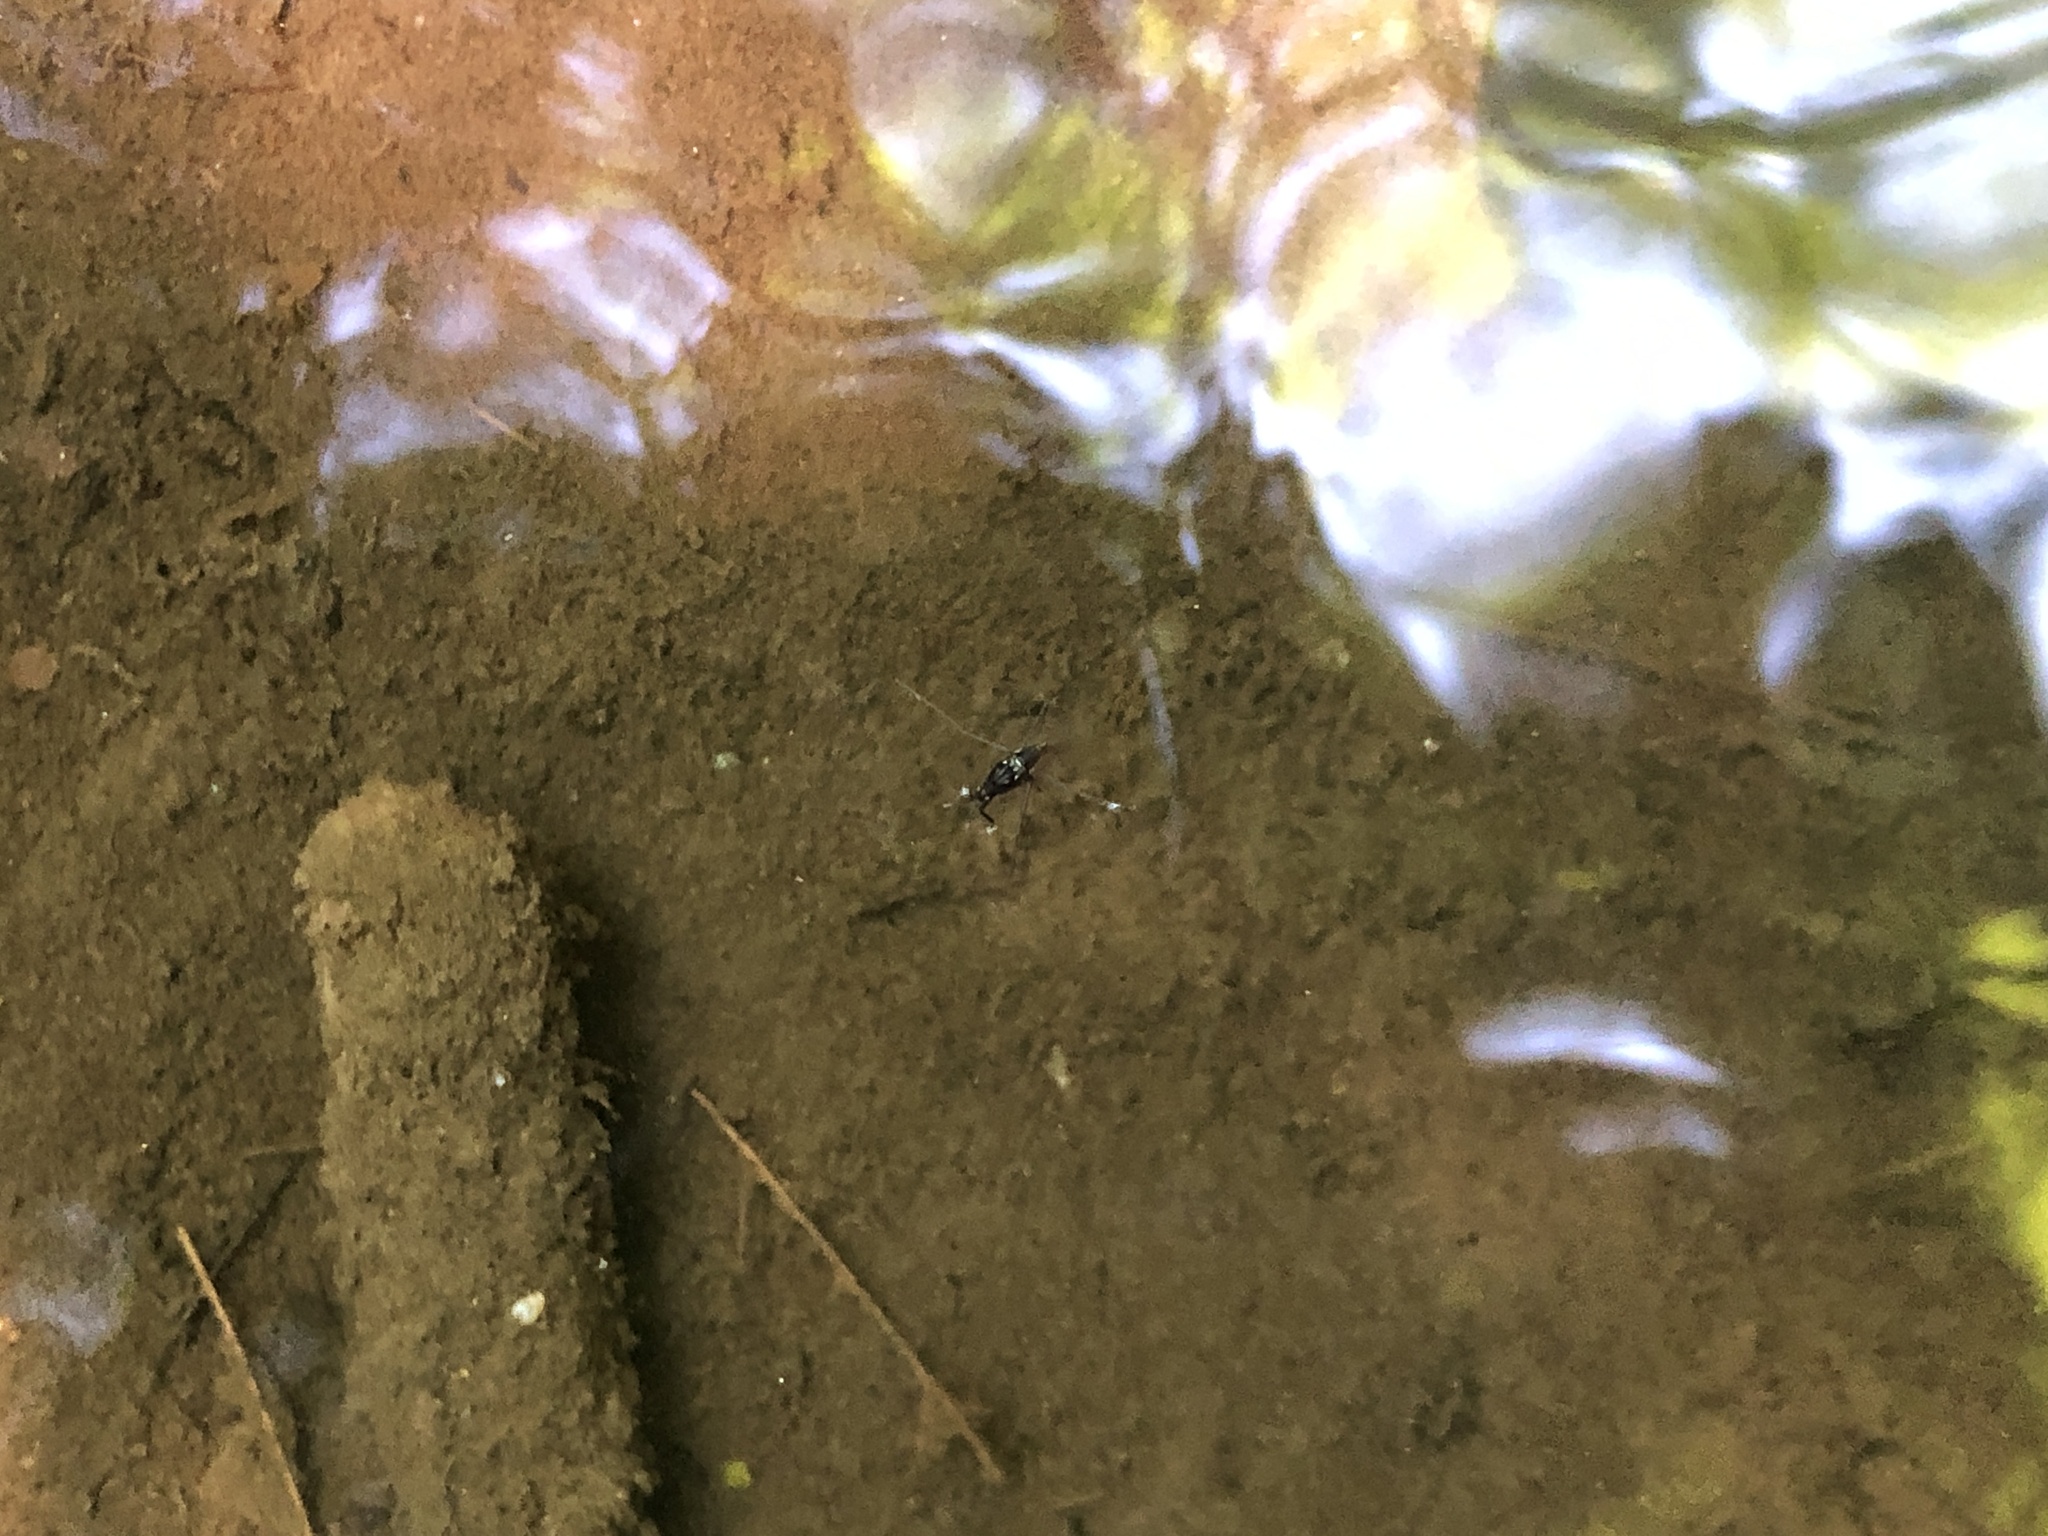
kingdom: Animalia
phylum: Arthropoda
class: Insecta
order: Hemiptera
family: Gerridae
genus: Aquarius
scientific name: Aquarius
